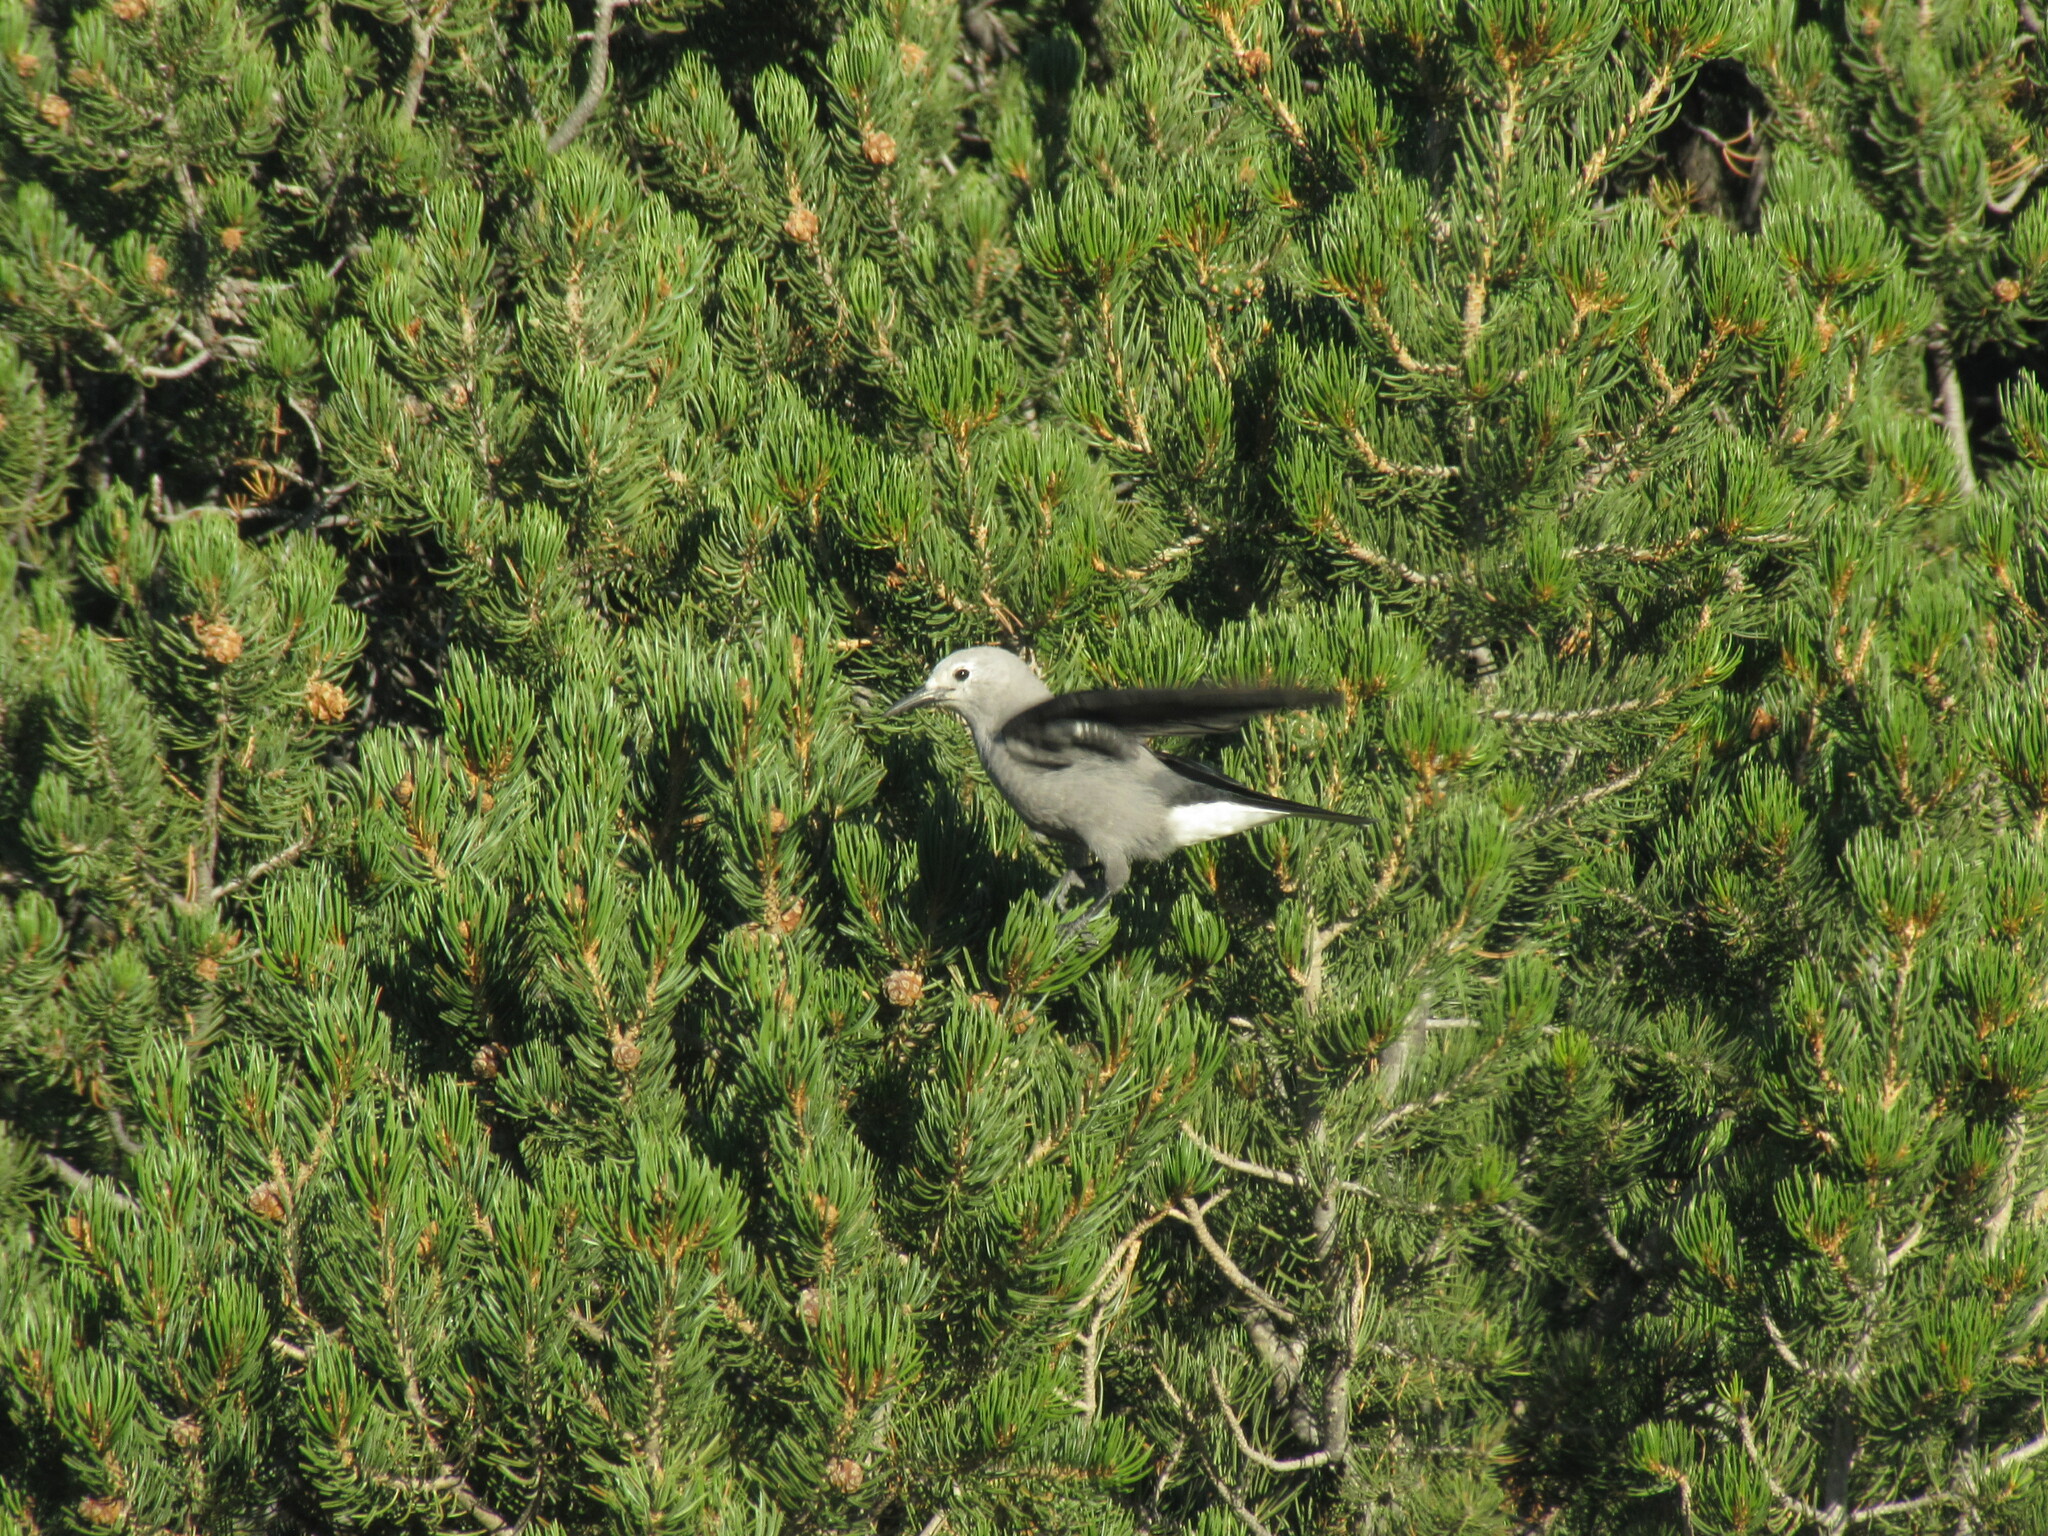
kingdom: Animalia
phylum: Chordata
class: Aves
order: Passeriformes
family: Corvidae
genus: Nucifraga
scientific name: Nucifraga columbiana
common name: Clark's nutcracker
